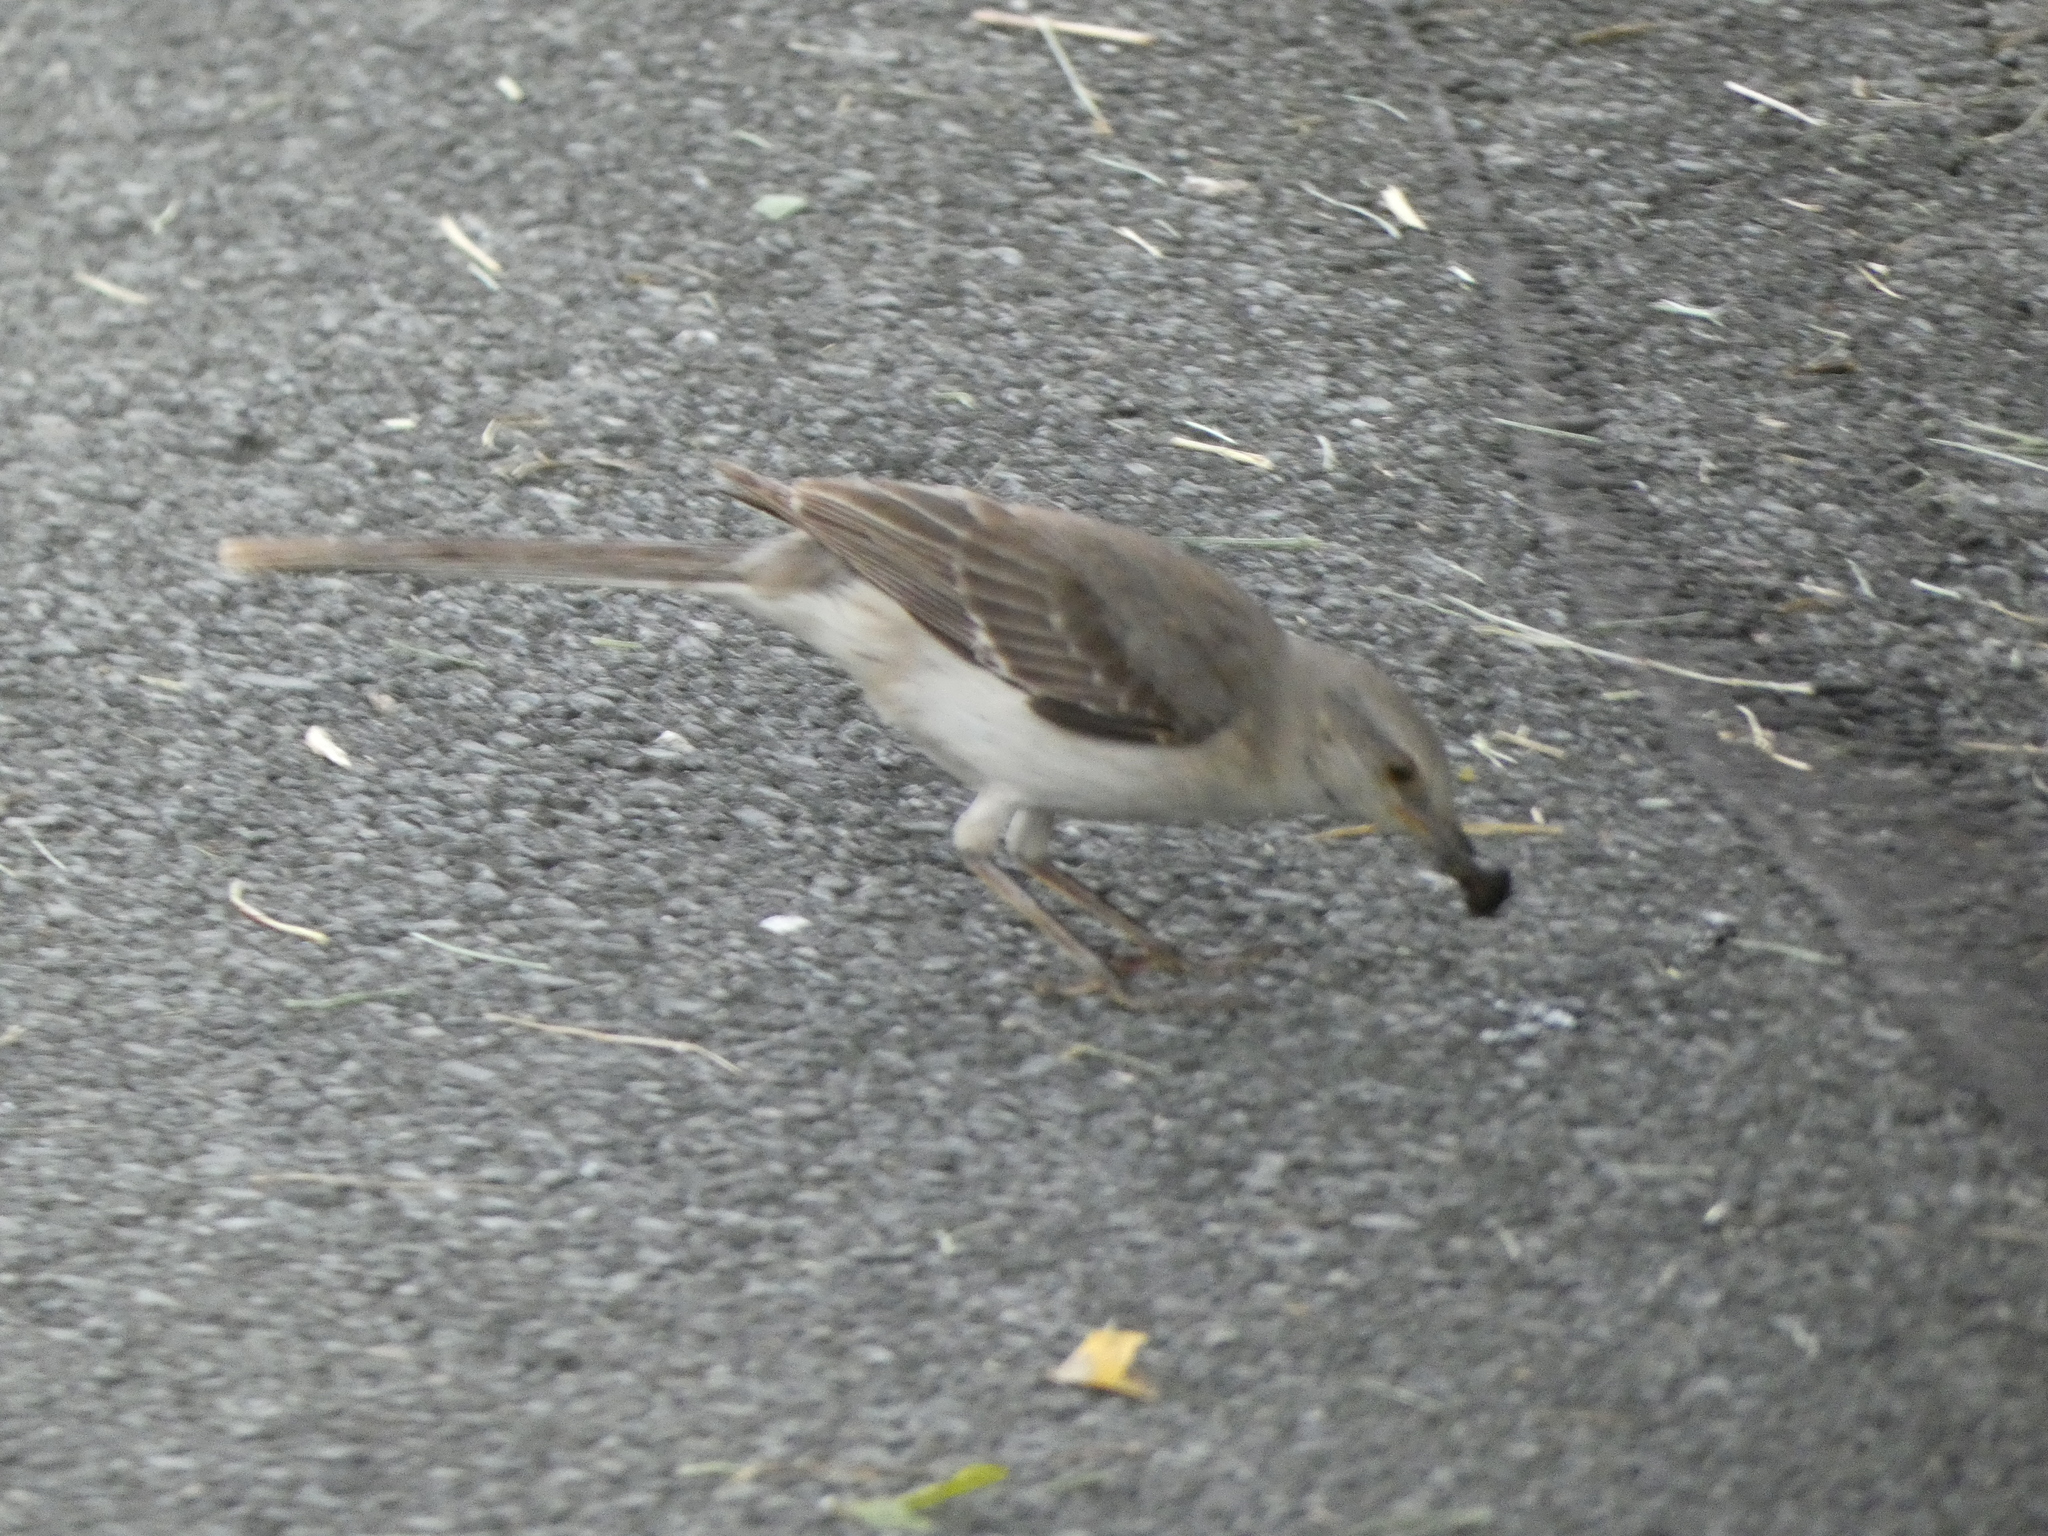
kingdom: Animalia
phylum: Chordata
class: Aves
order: Passeriformes
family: Mimidae
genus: Mimus
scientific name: Mimus polyglottos
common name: Northern mockingbird
